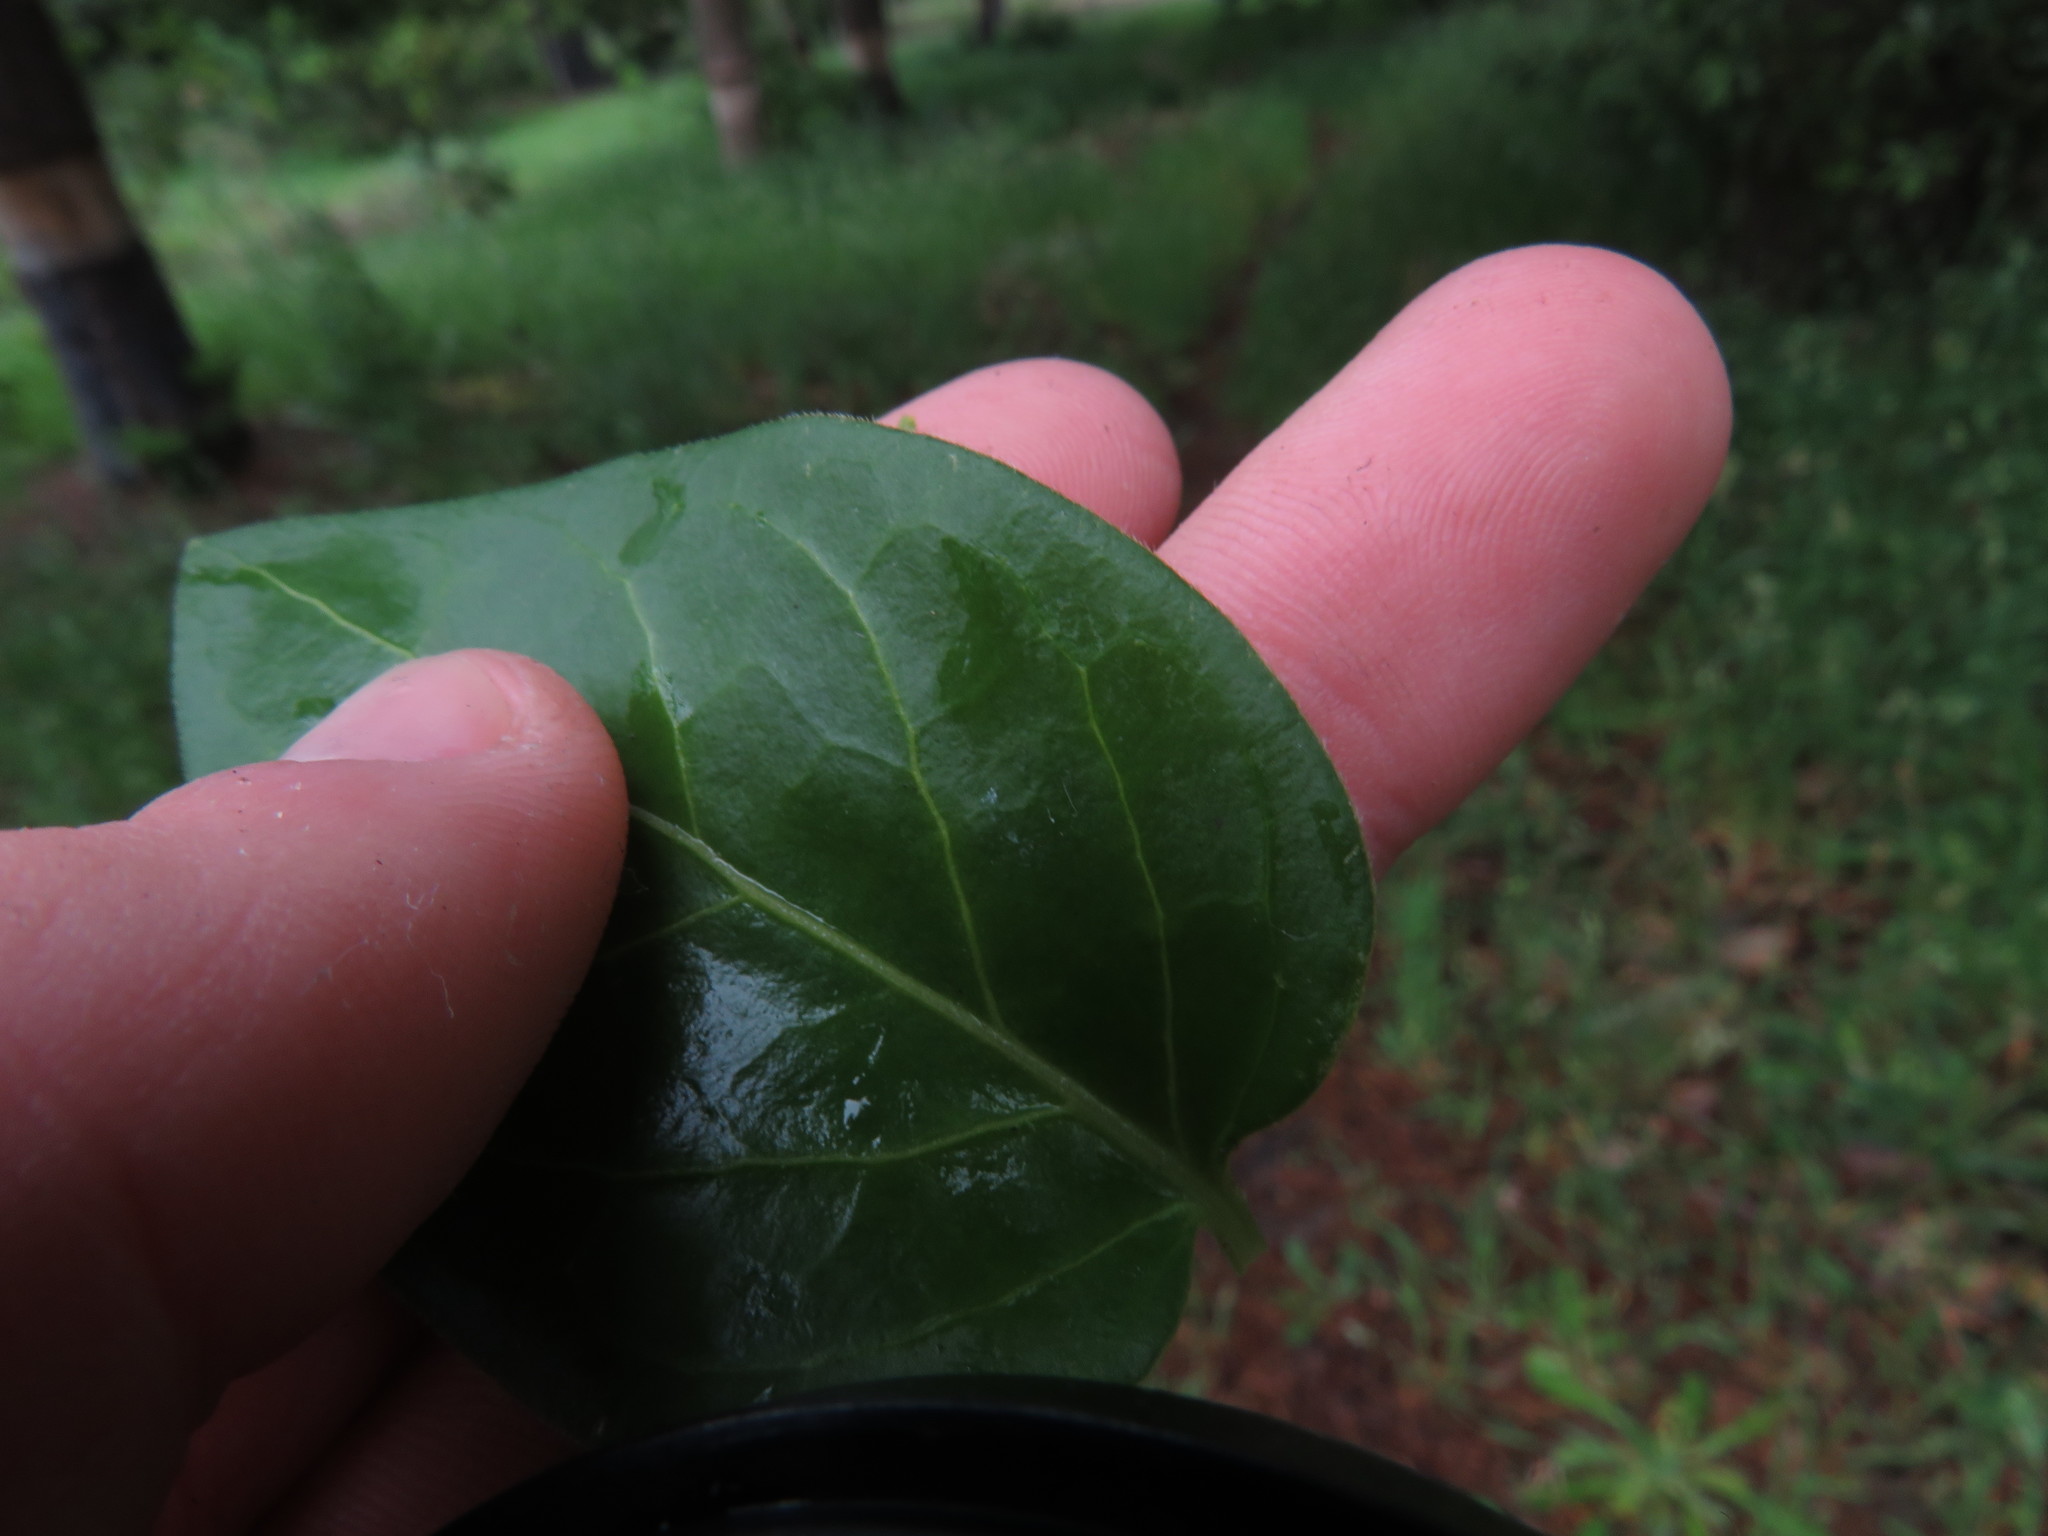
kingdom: Plantae
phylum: Tracheophyta
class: Magnoliopsida
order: Gentianales
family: Apocynaceae
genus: Vinca
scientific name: Vinca major
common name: Greater periwinkle
